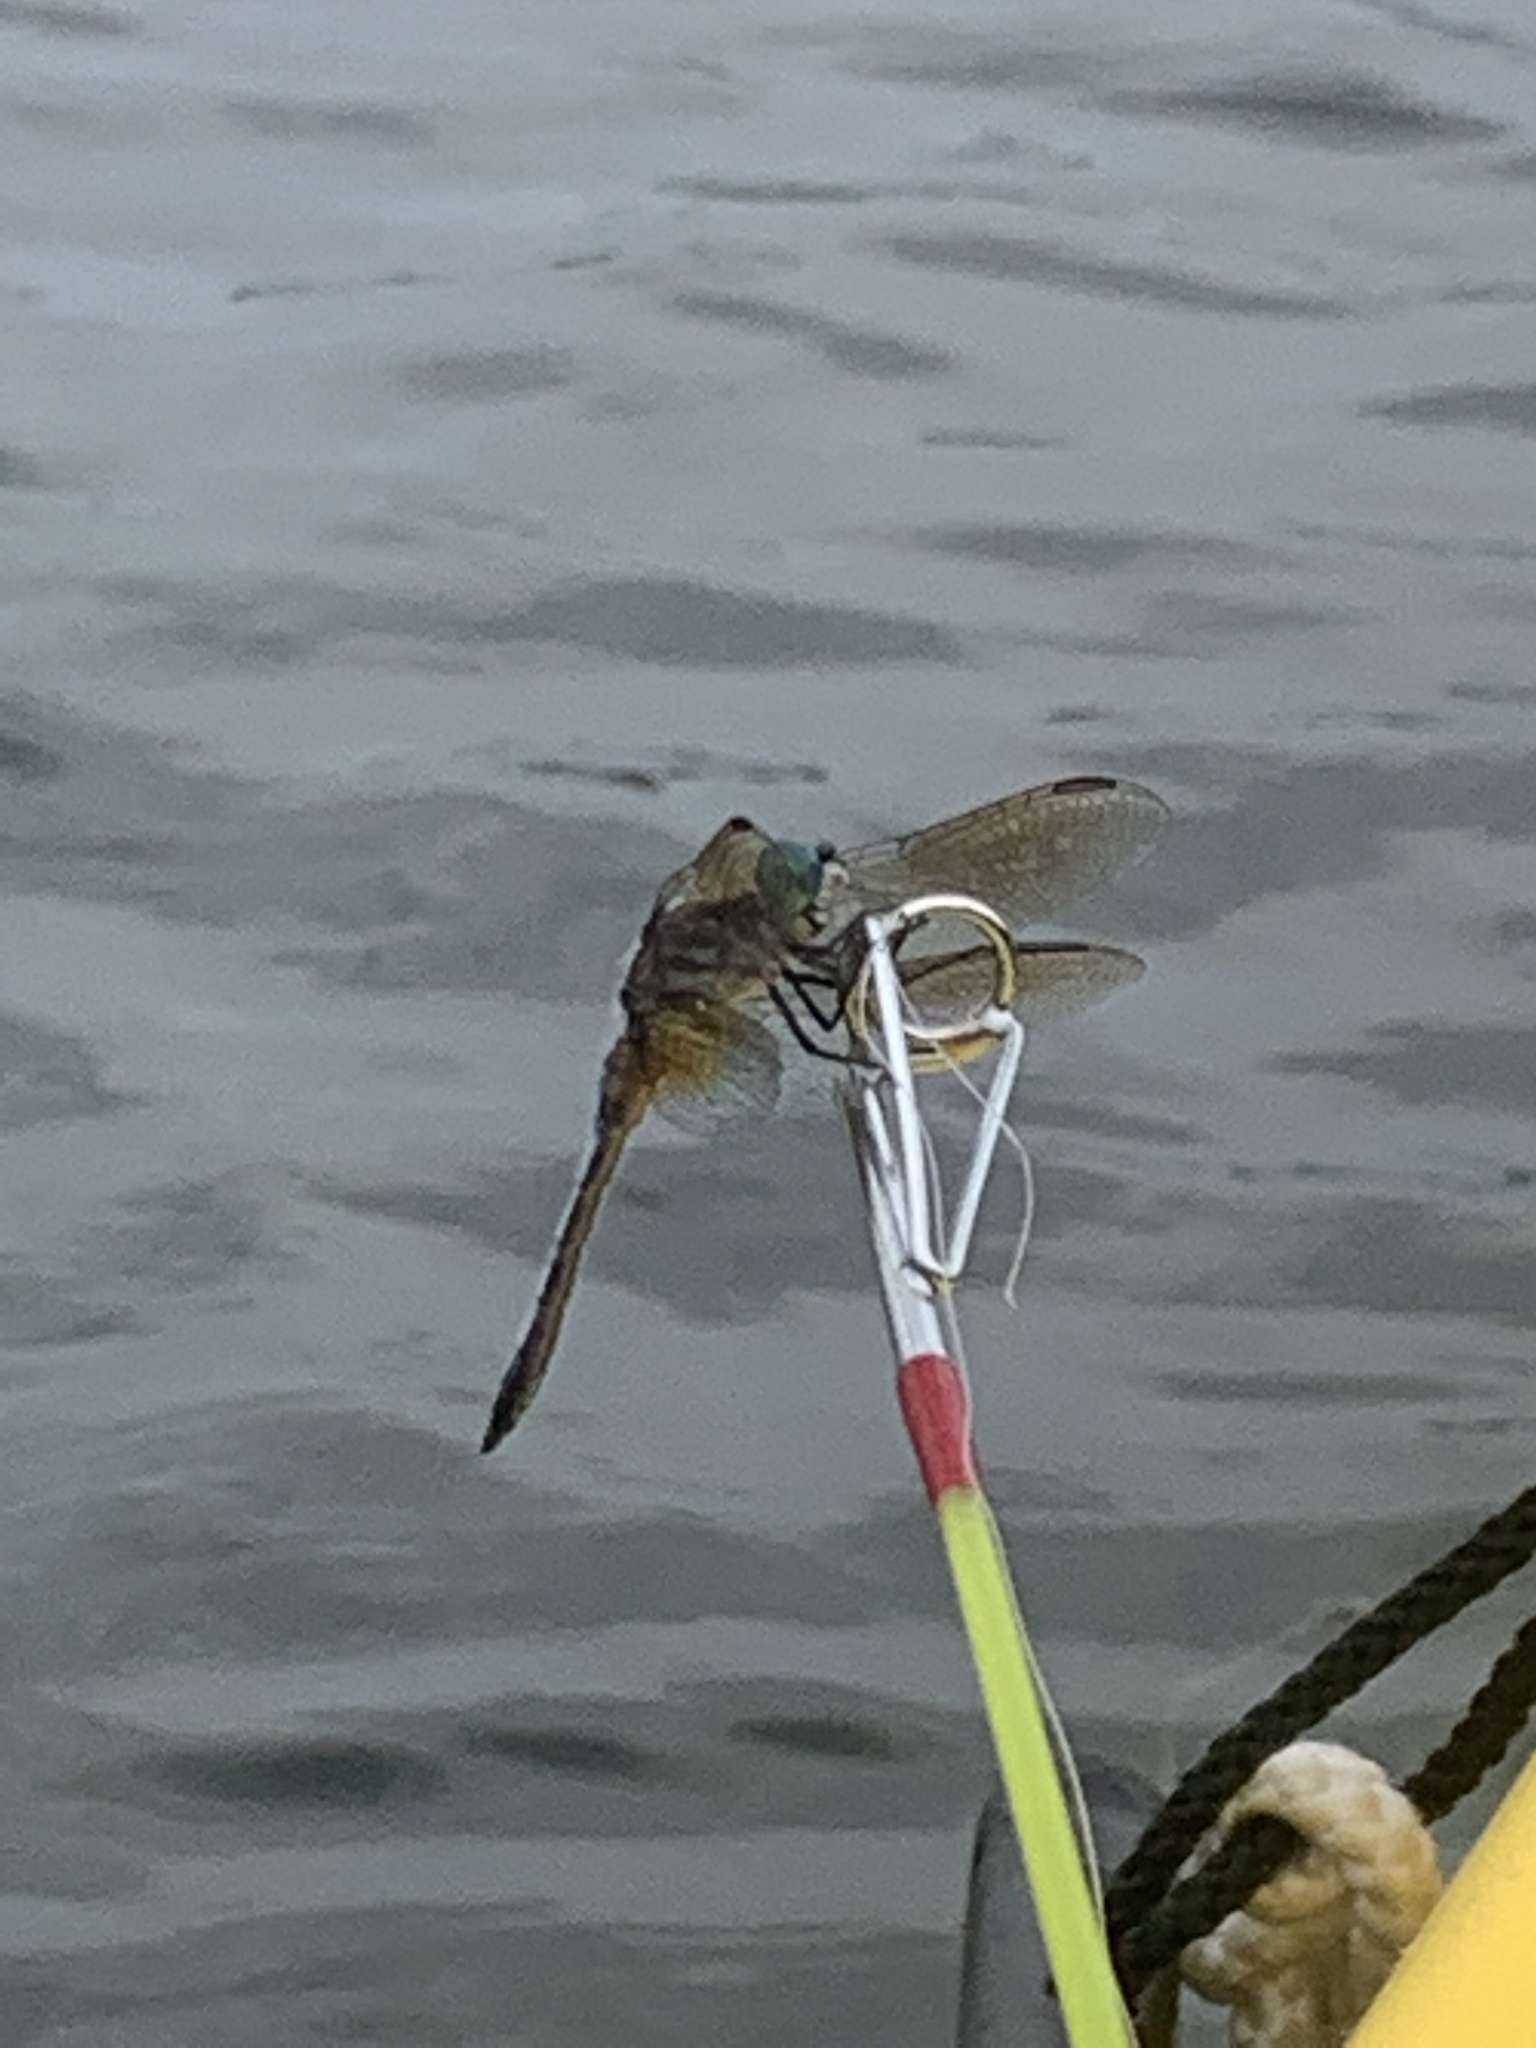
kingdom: Animalia
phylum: Arthropoda
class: Insecta
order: Odonata
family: Libellulidae
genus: Pachydiplax
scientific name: Pachydiplax longipennis
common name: Blue dasher
